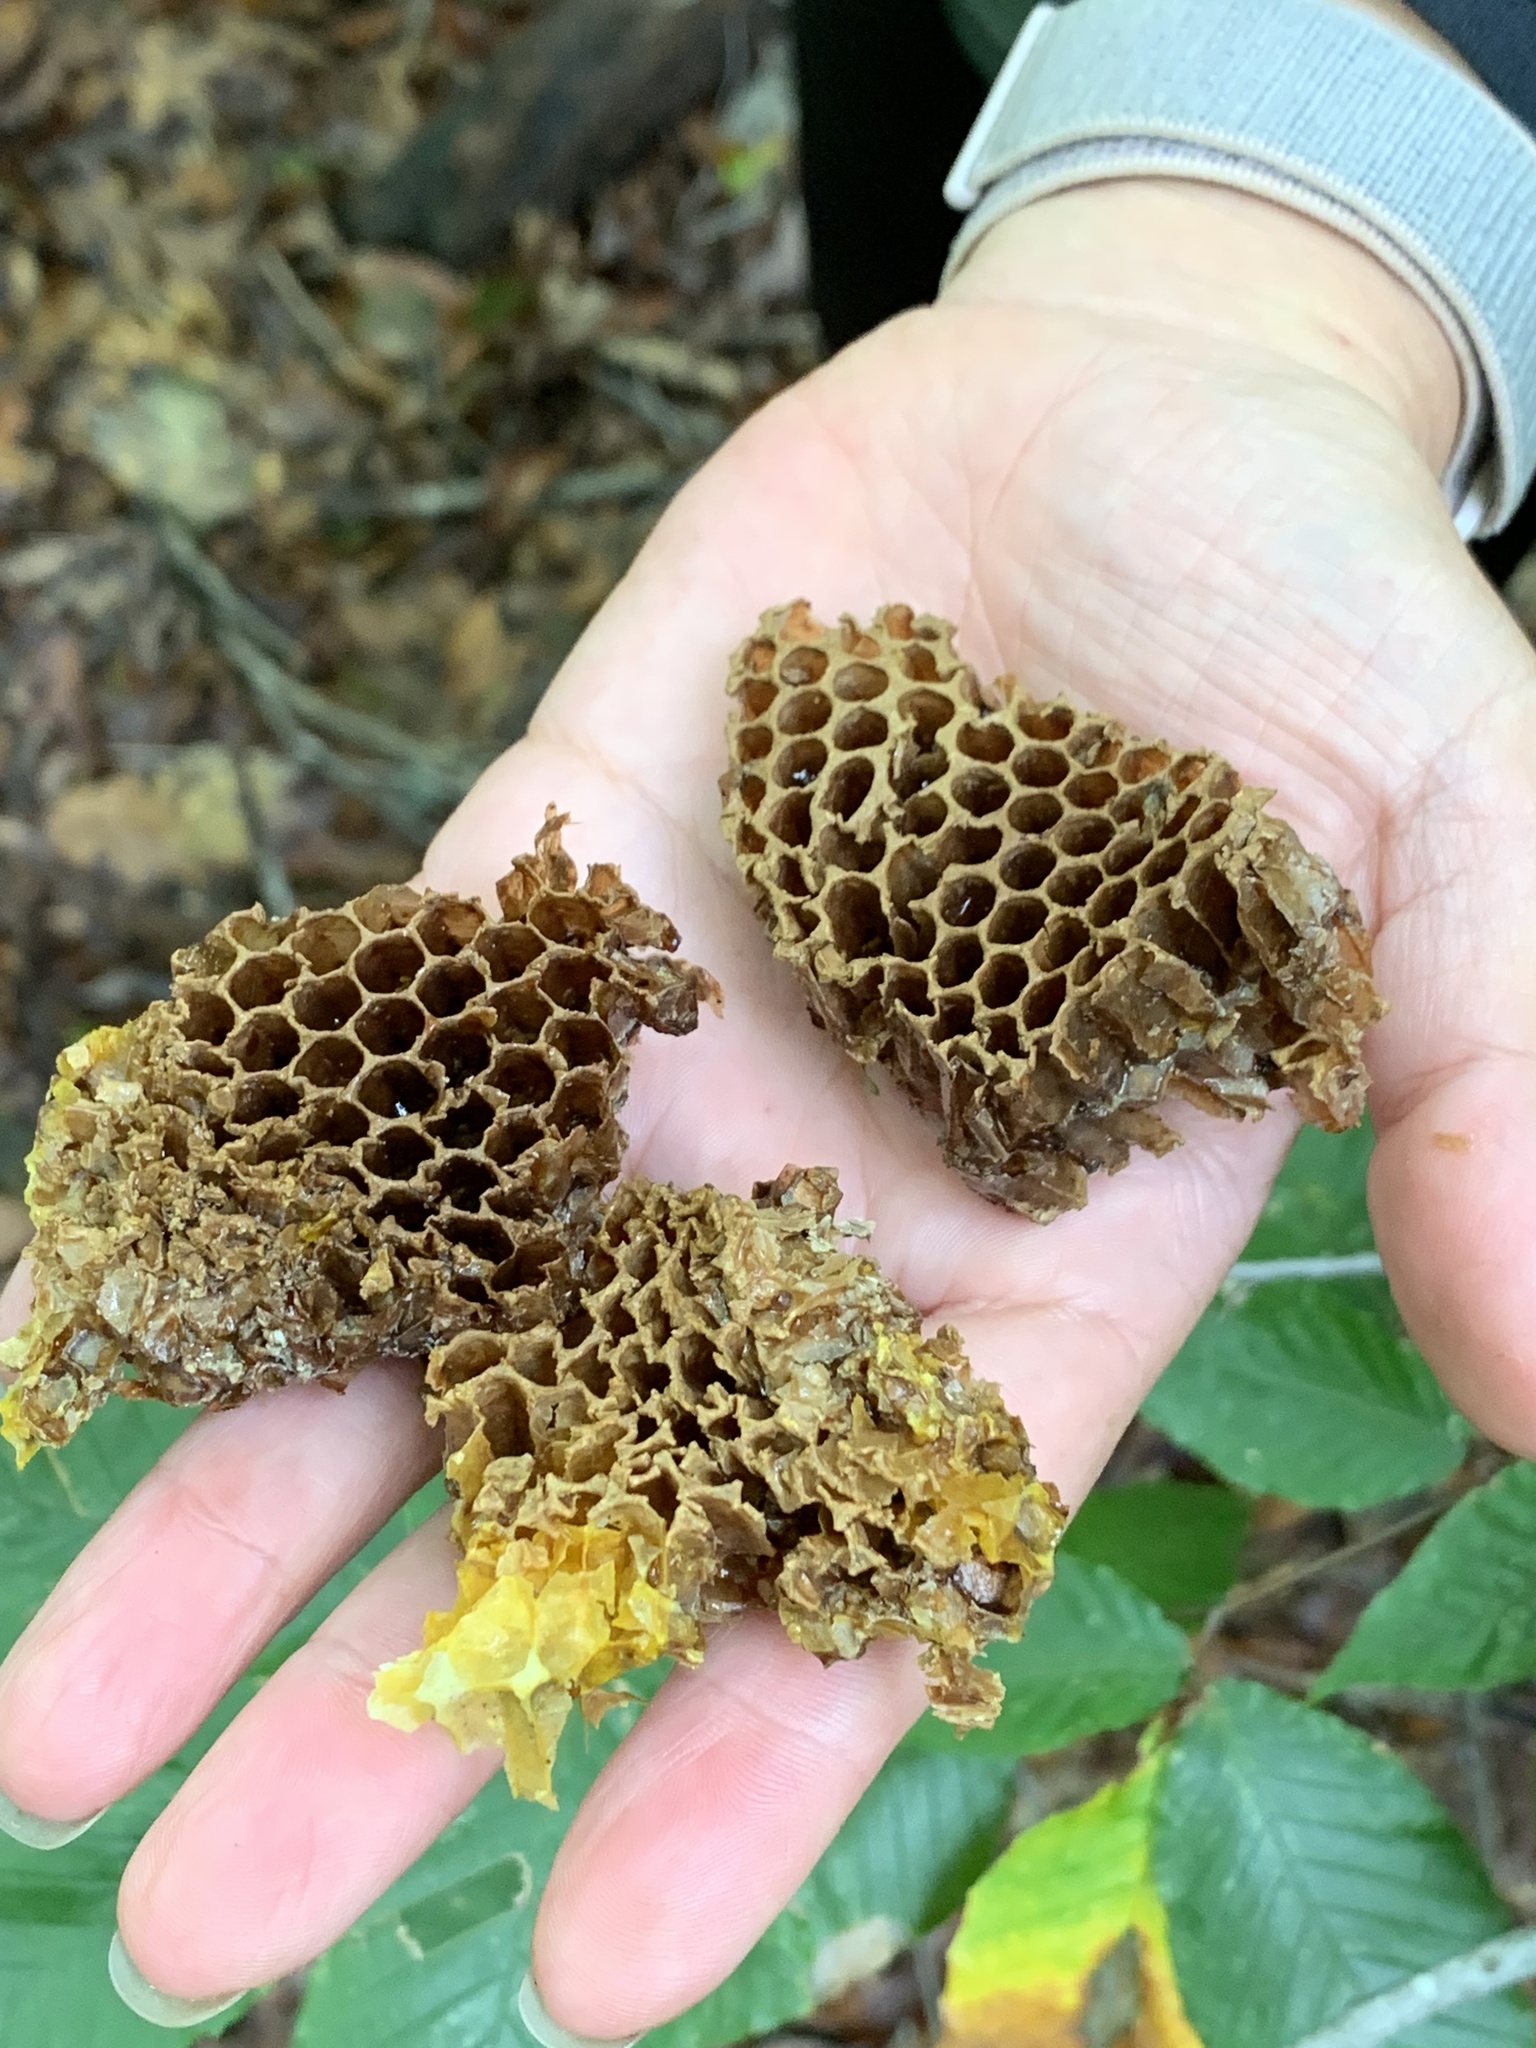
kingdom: Animalia
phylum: Arthropoda
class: Insecta
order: Hymenoptera
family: Apidae
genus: Apis
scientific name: Apis mellifera
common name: Honey bee
